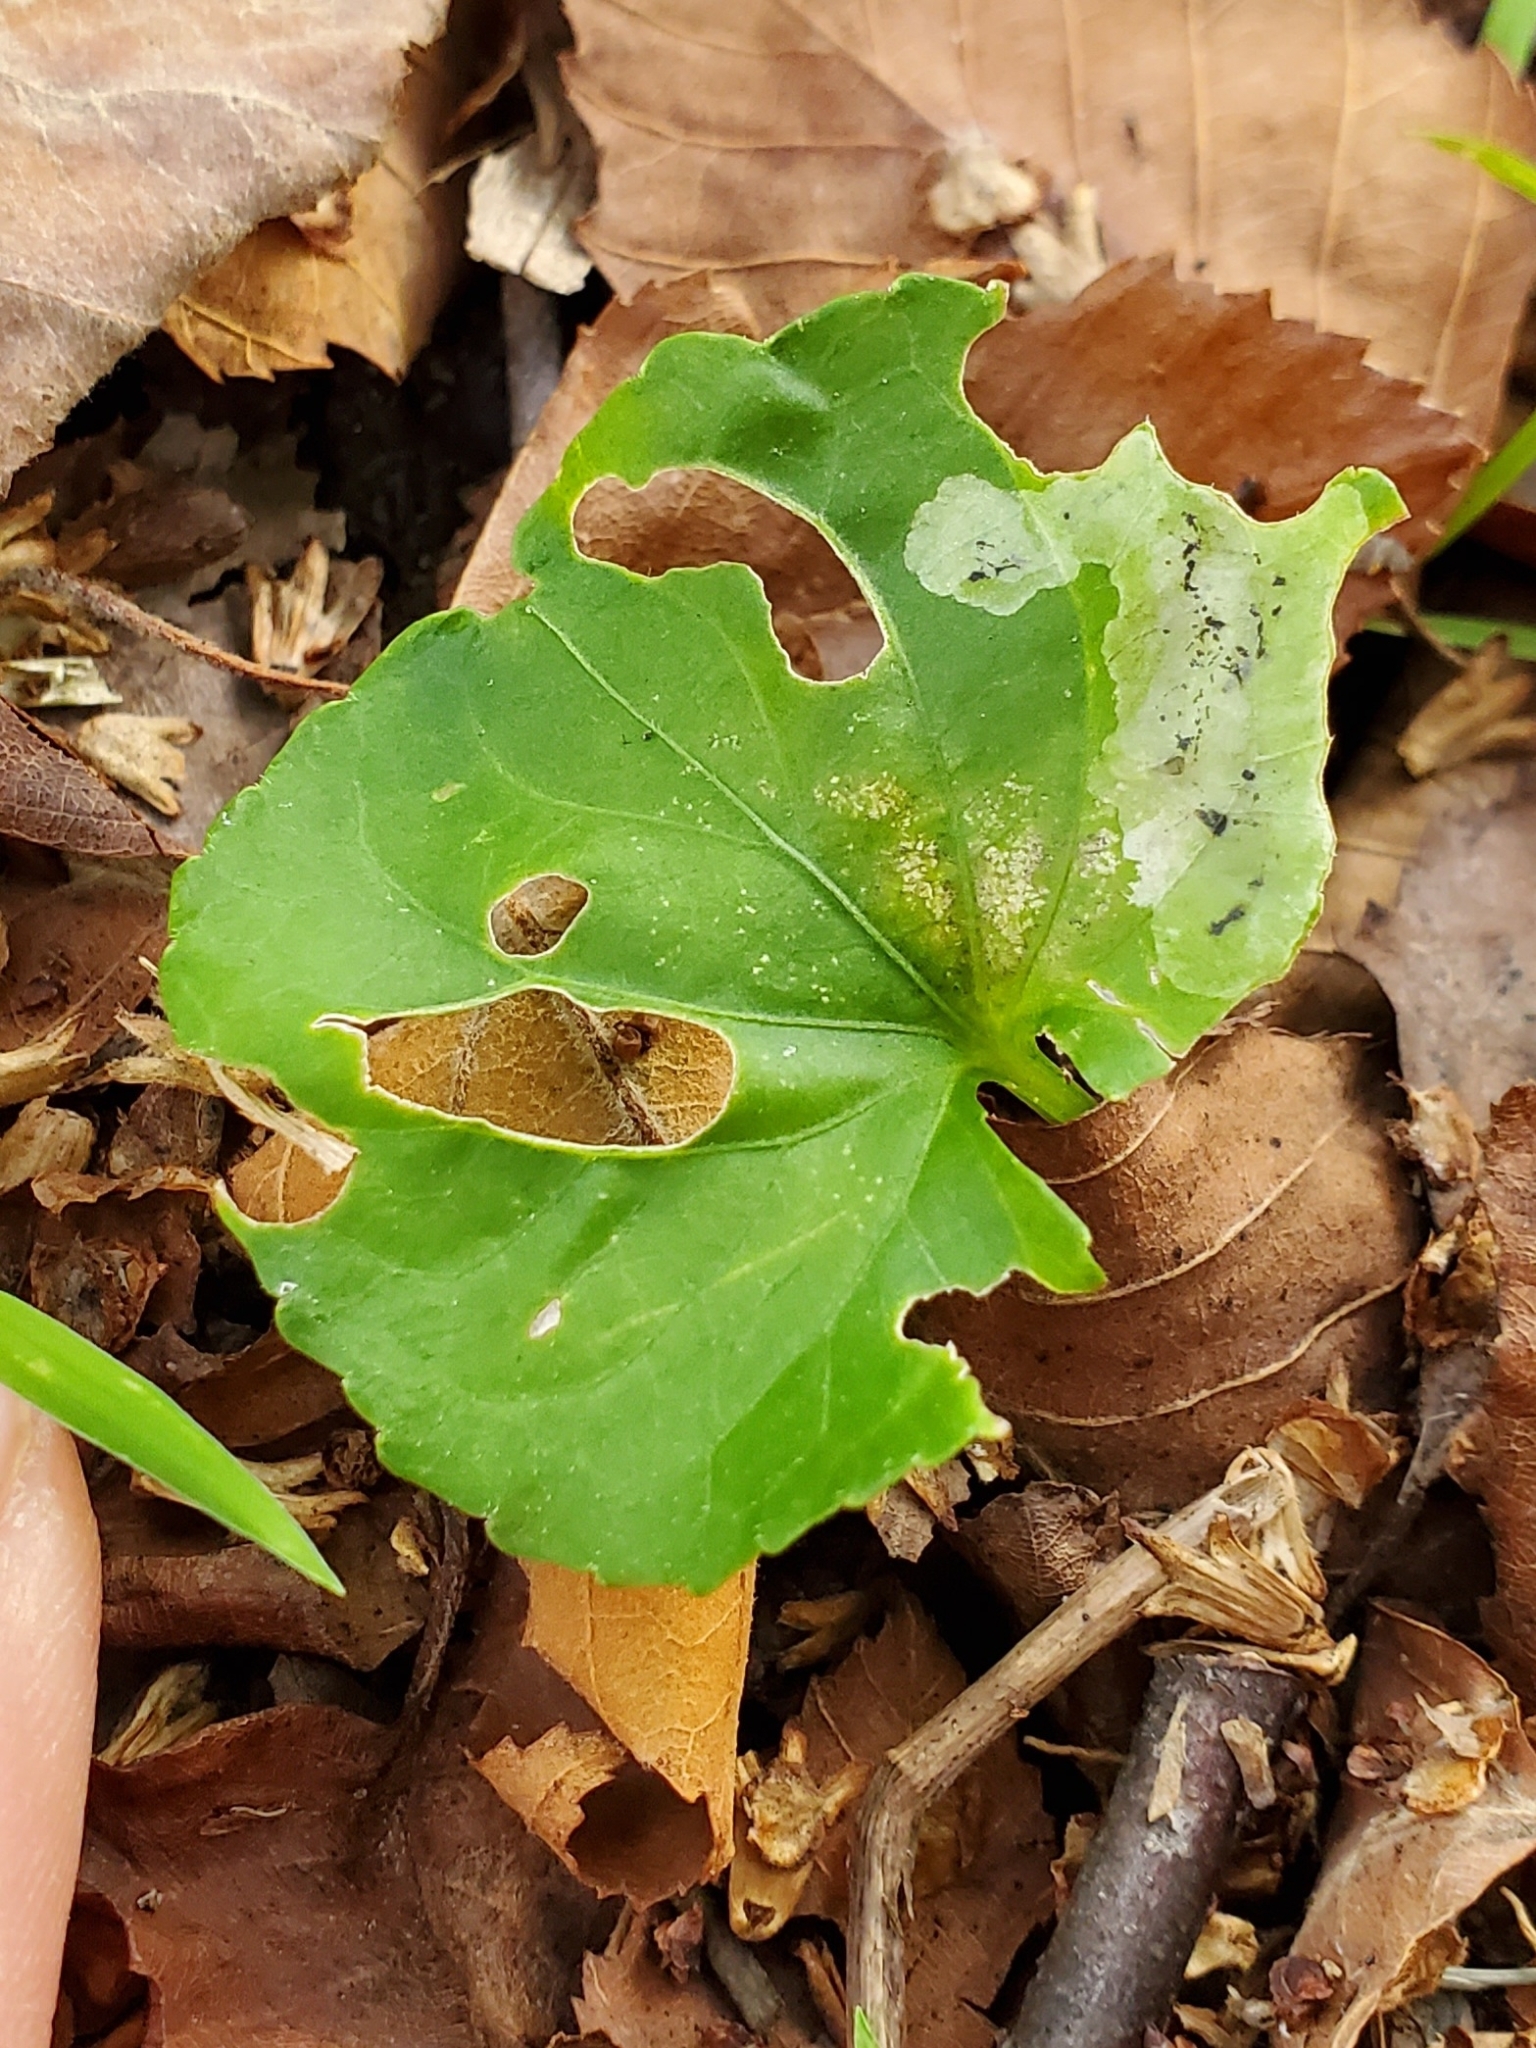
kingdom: Animalia
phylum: Arthropoda
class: Insecta
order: Diptera
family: Agromyzidae
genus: Liriomyza
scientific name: Liriomyza violivora
